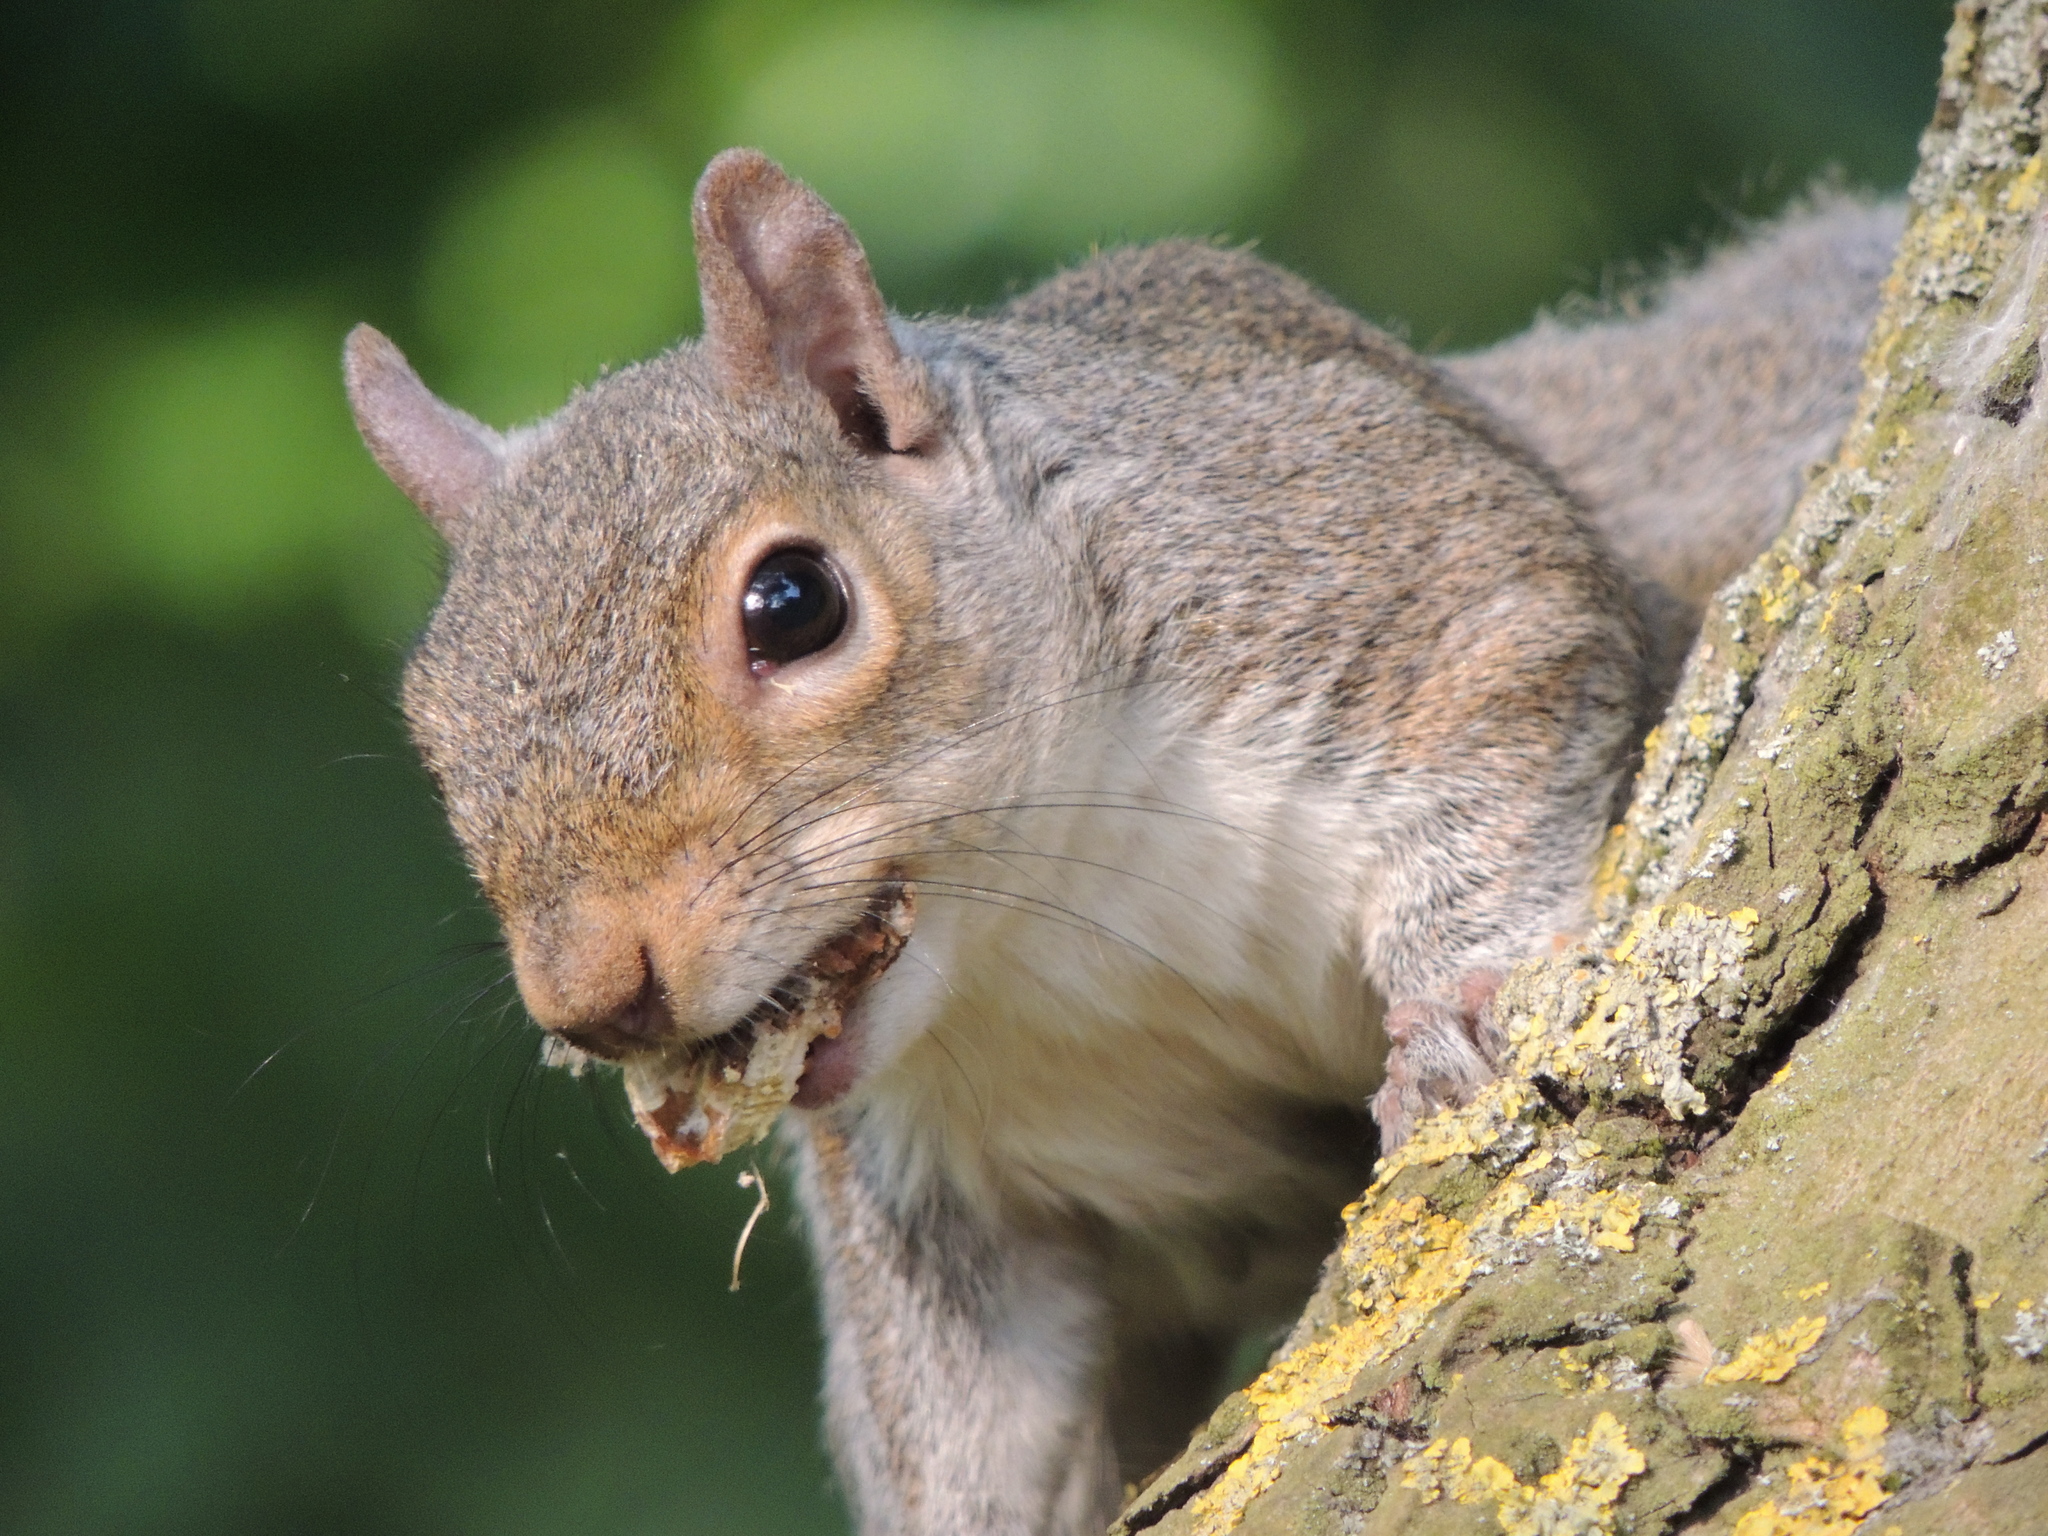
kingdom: Animalia
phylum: Chordata
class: Mammalia
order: Rodentia
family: Sciuridae
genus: Sciurus
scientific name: Sciurus carolinensis
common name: Eastern gray squirrel
